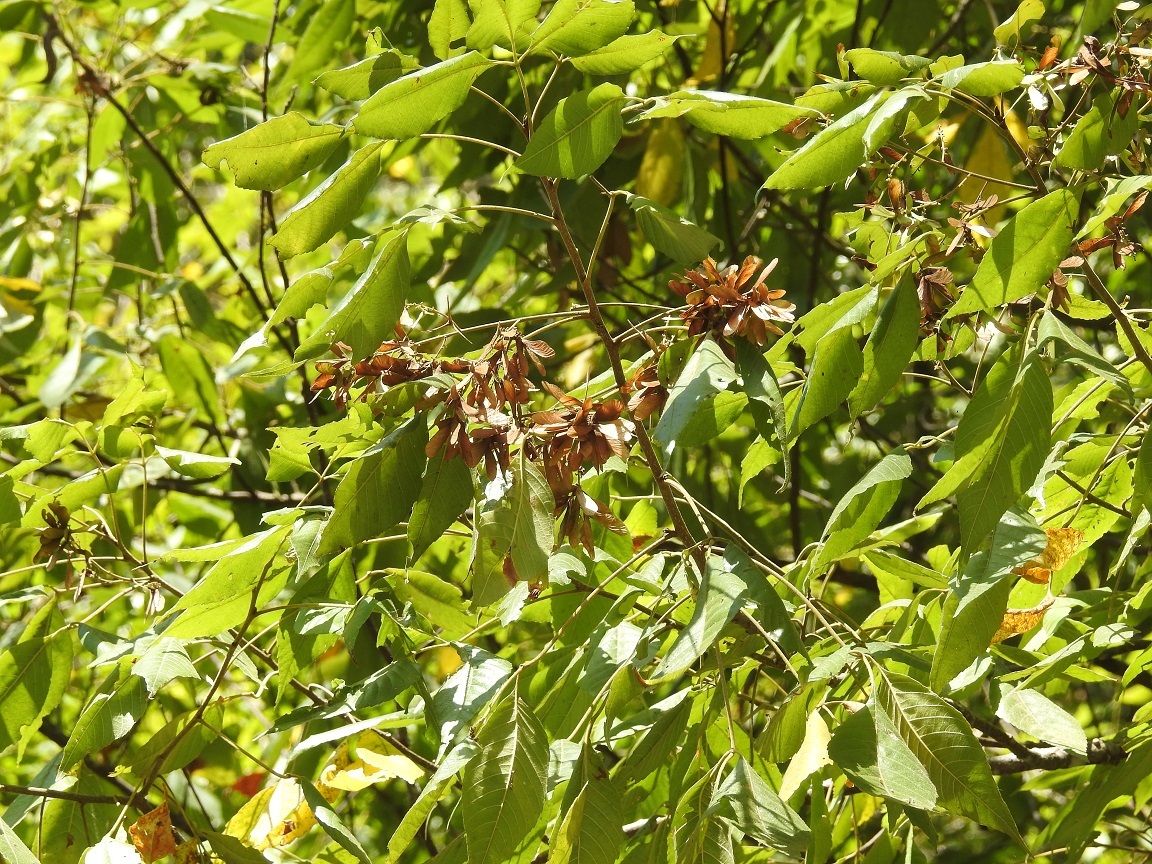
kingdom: Plantae
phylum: Tracheophyta
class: Magnoliopsida
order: Sapindales
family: Sapindaceae
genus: Thouinia
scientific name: Thouinia serrata
